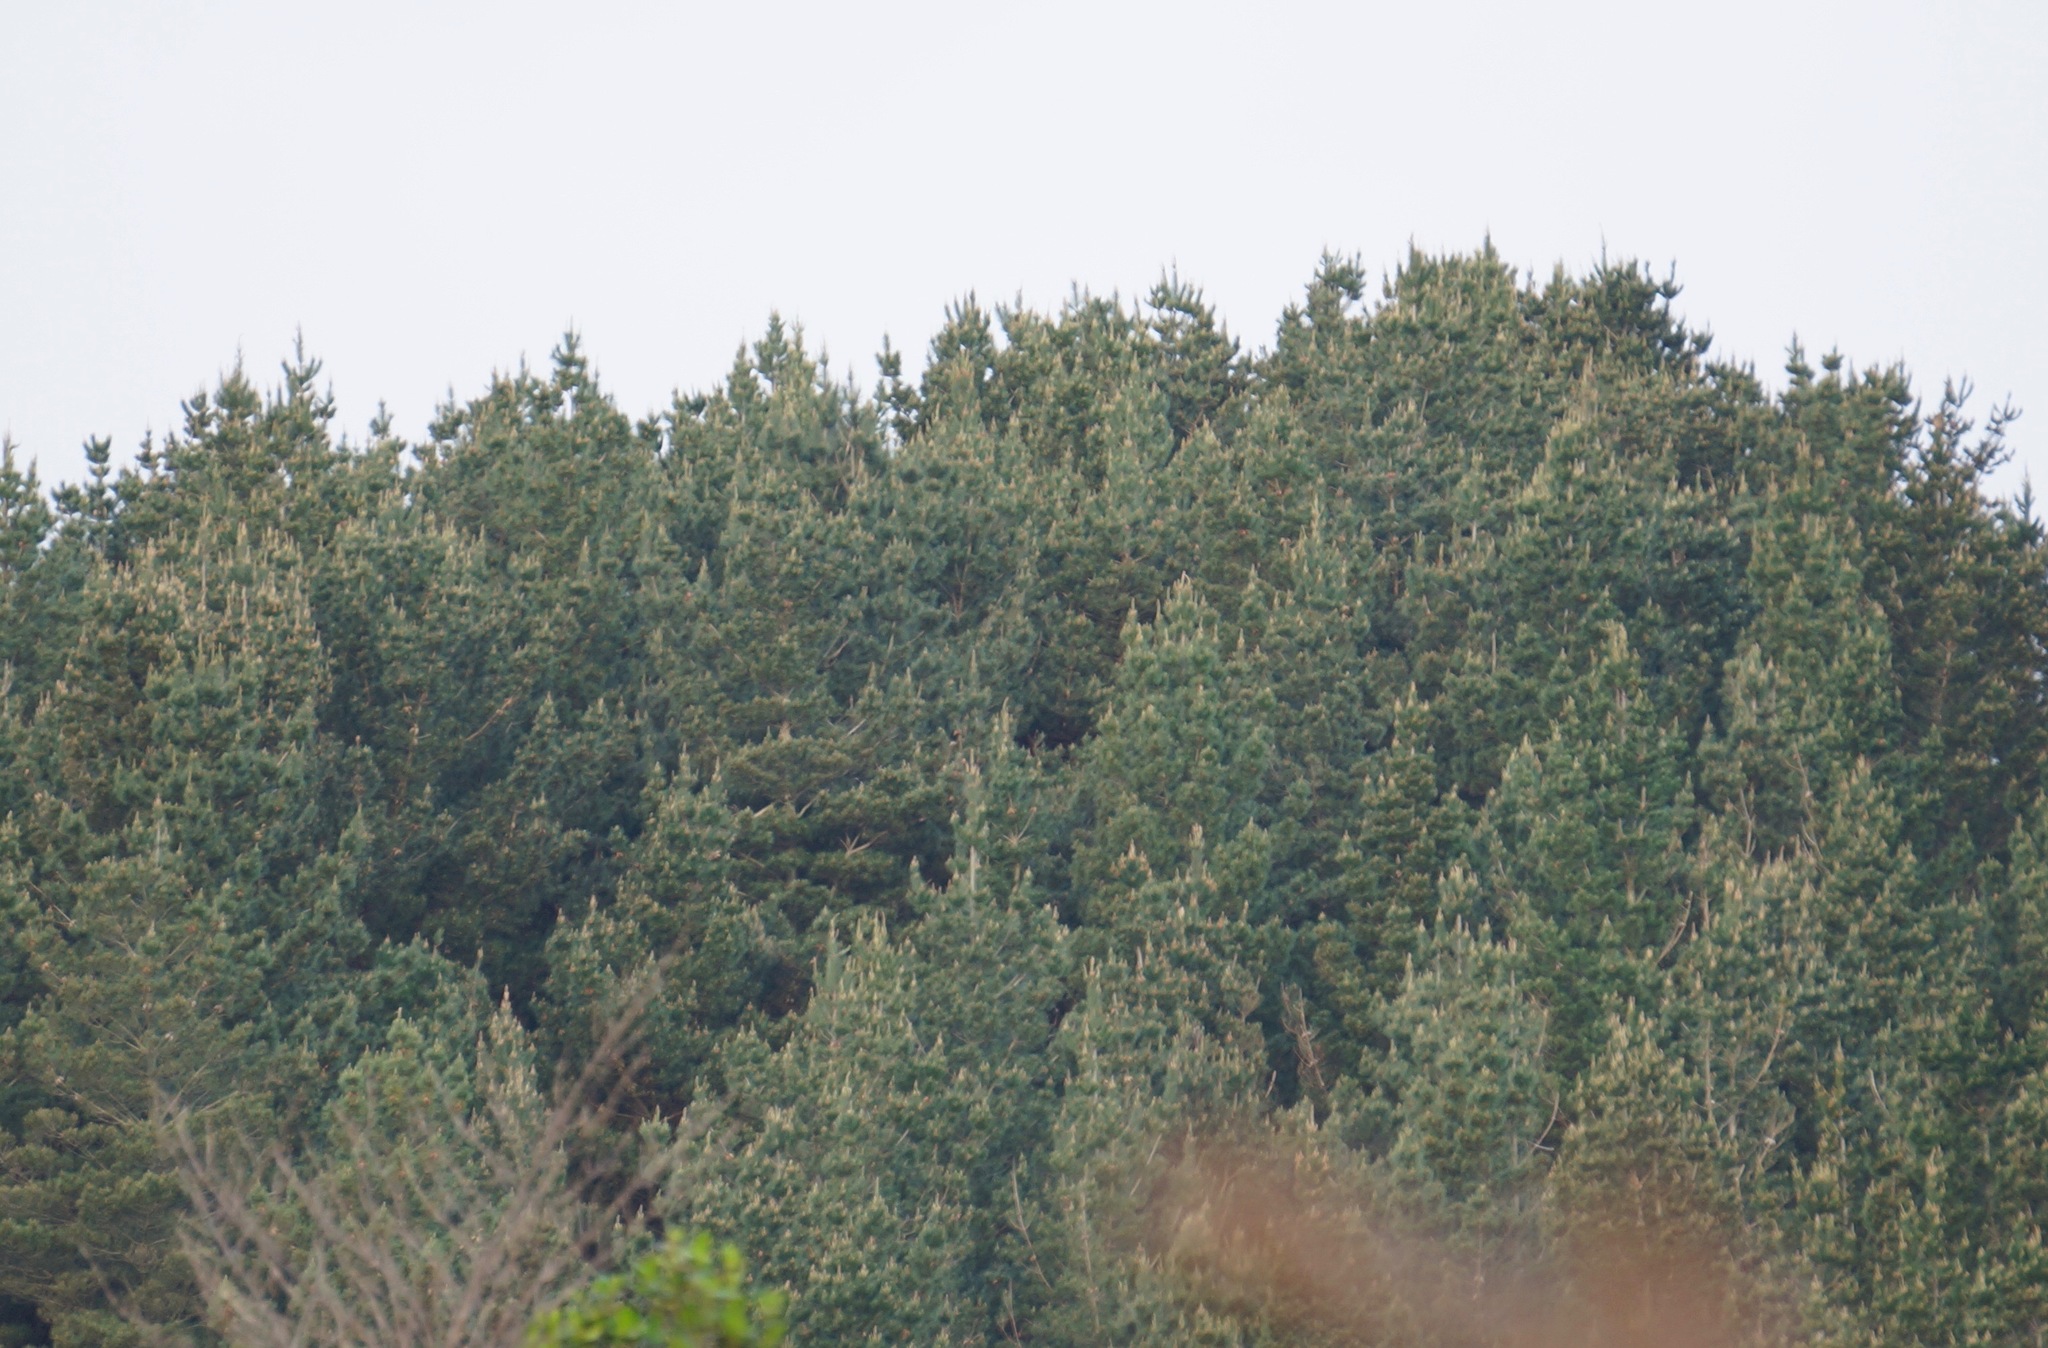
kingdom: Plantae
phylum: Tracheophyta
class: Pinopsida
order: Pinales
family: Pinaceae
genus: Pinus
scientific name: Pinus radiata
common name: Monterey pine
